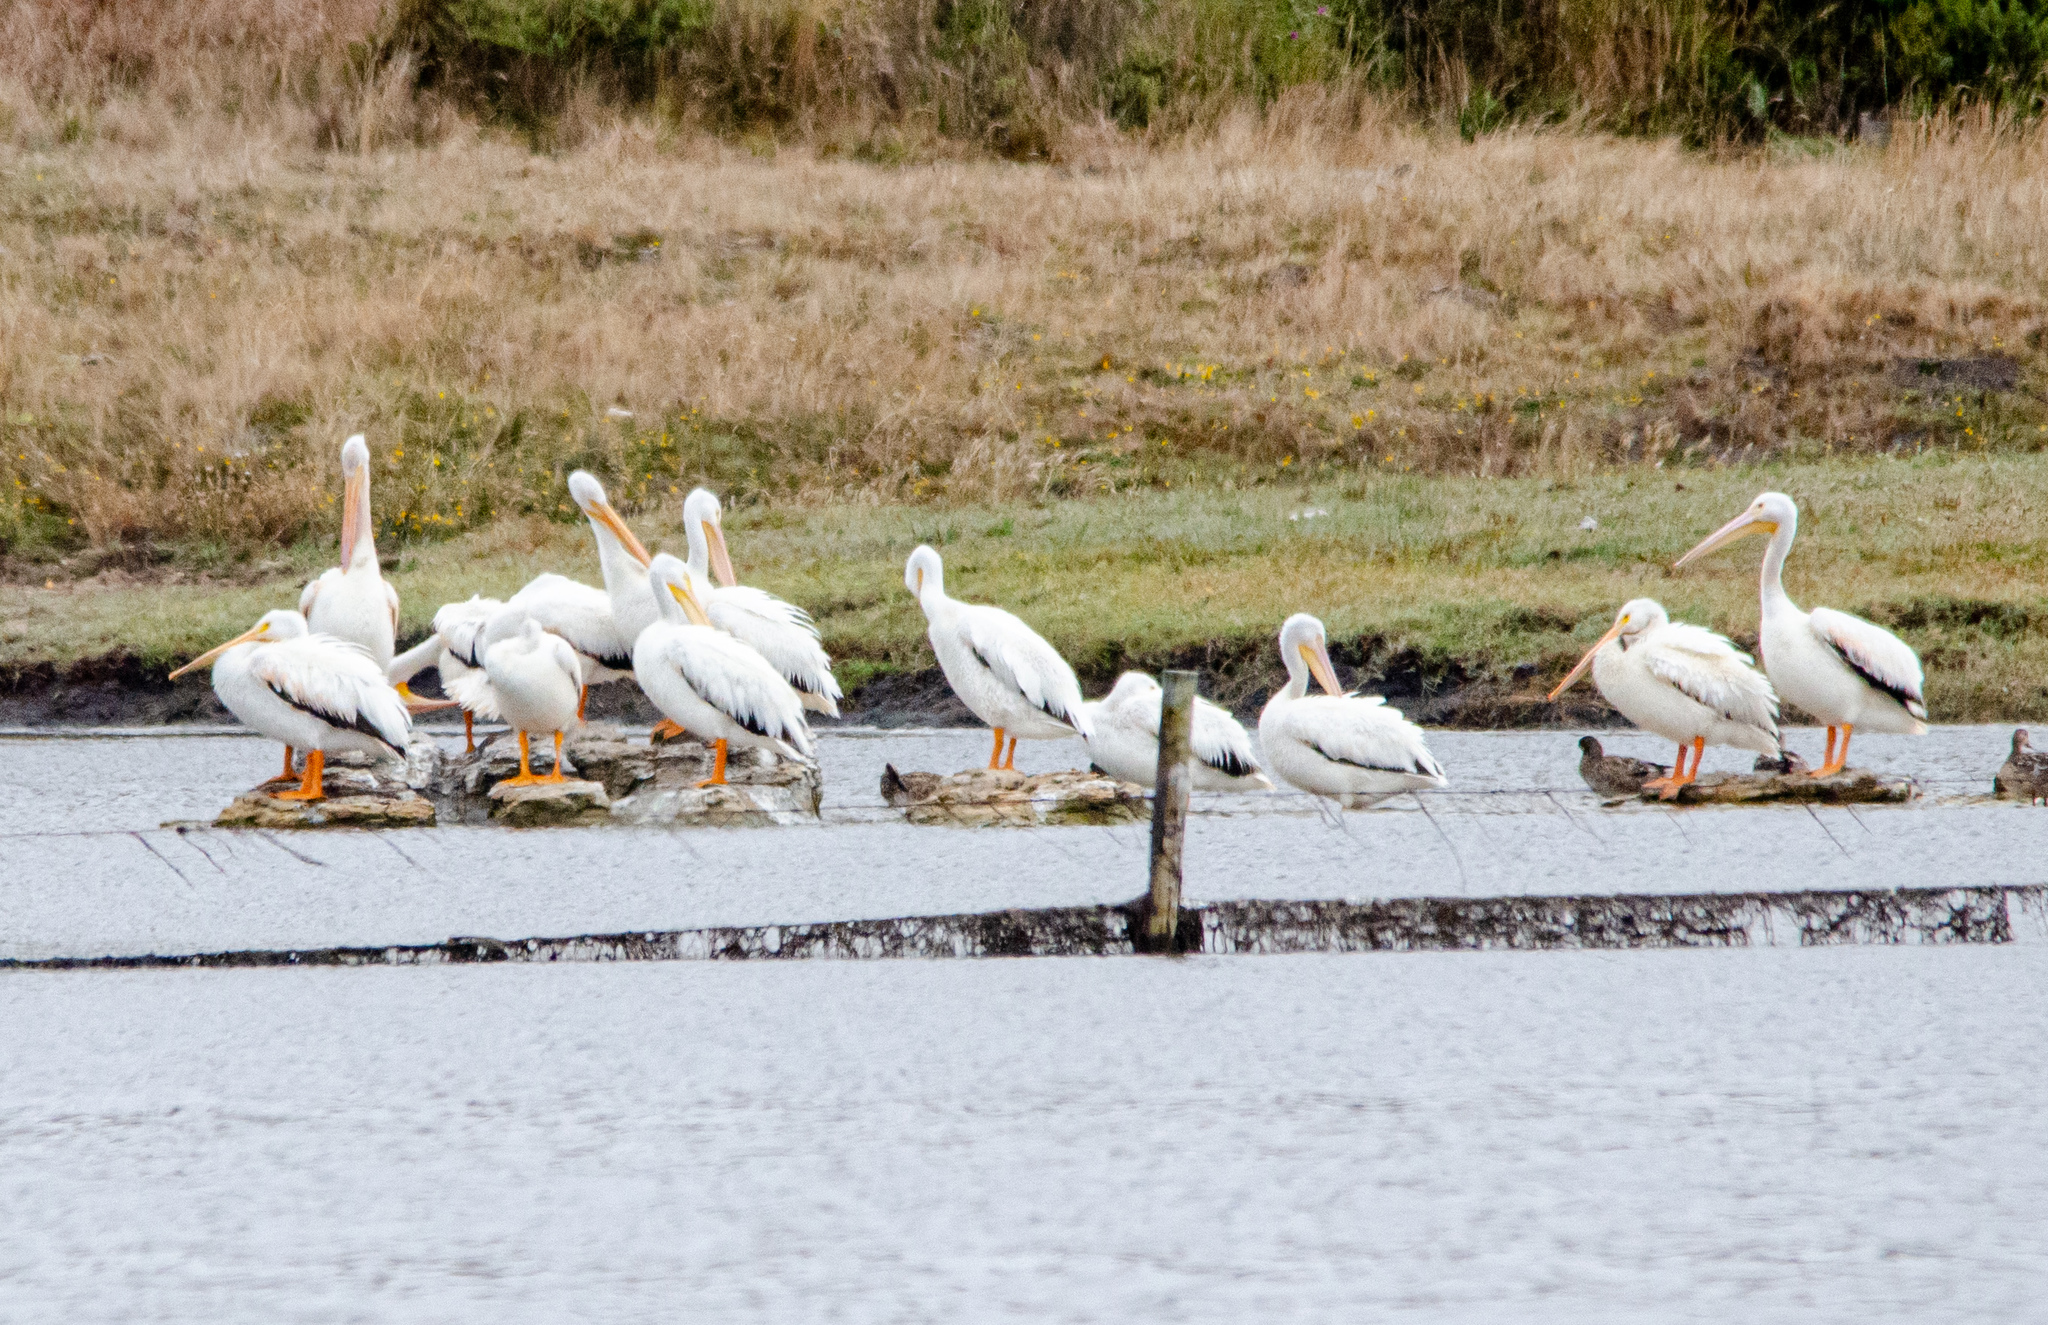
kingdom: Animalia
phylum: Chordata
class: Aves
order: Pelecaniformes
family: Pelecanidae
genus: Pelecanus
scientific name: Pelecanus erythrorhynchos
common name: American white pelican
